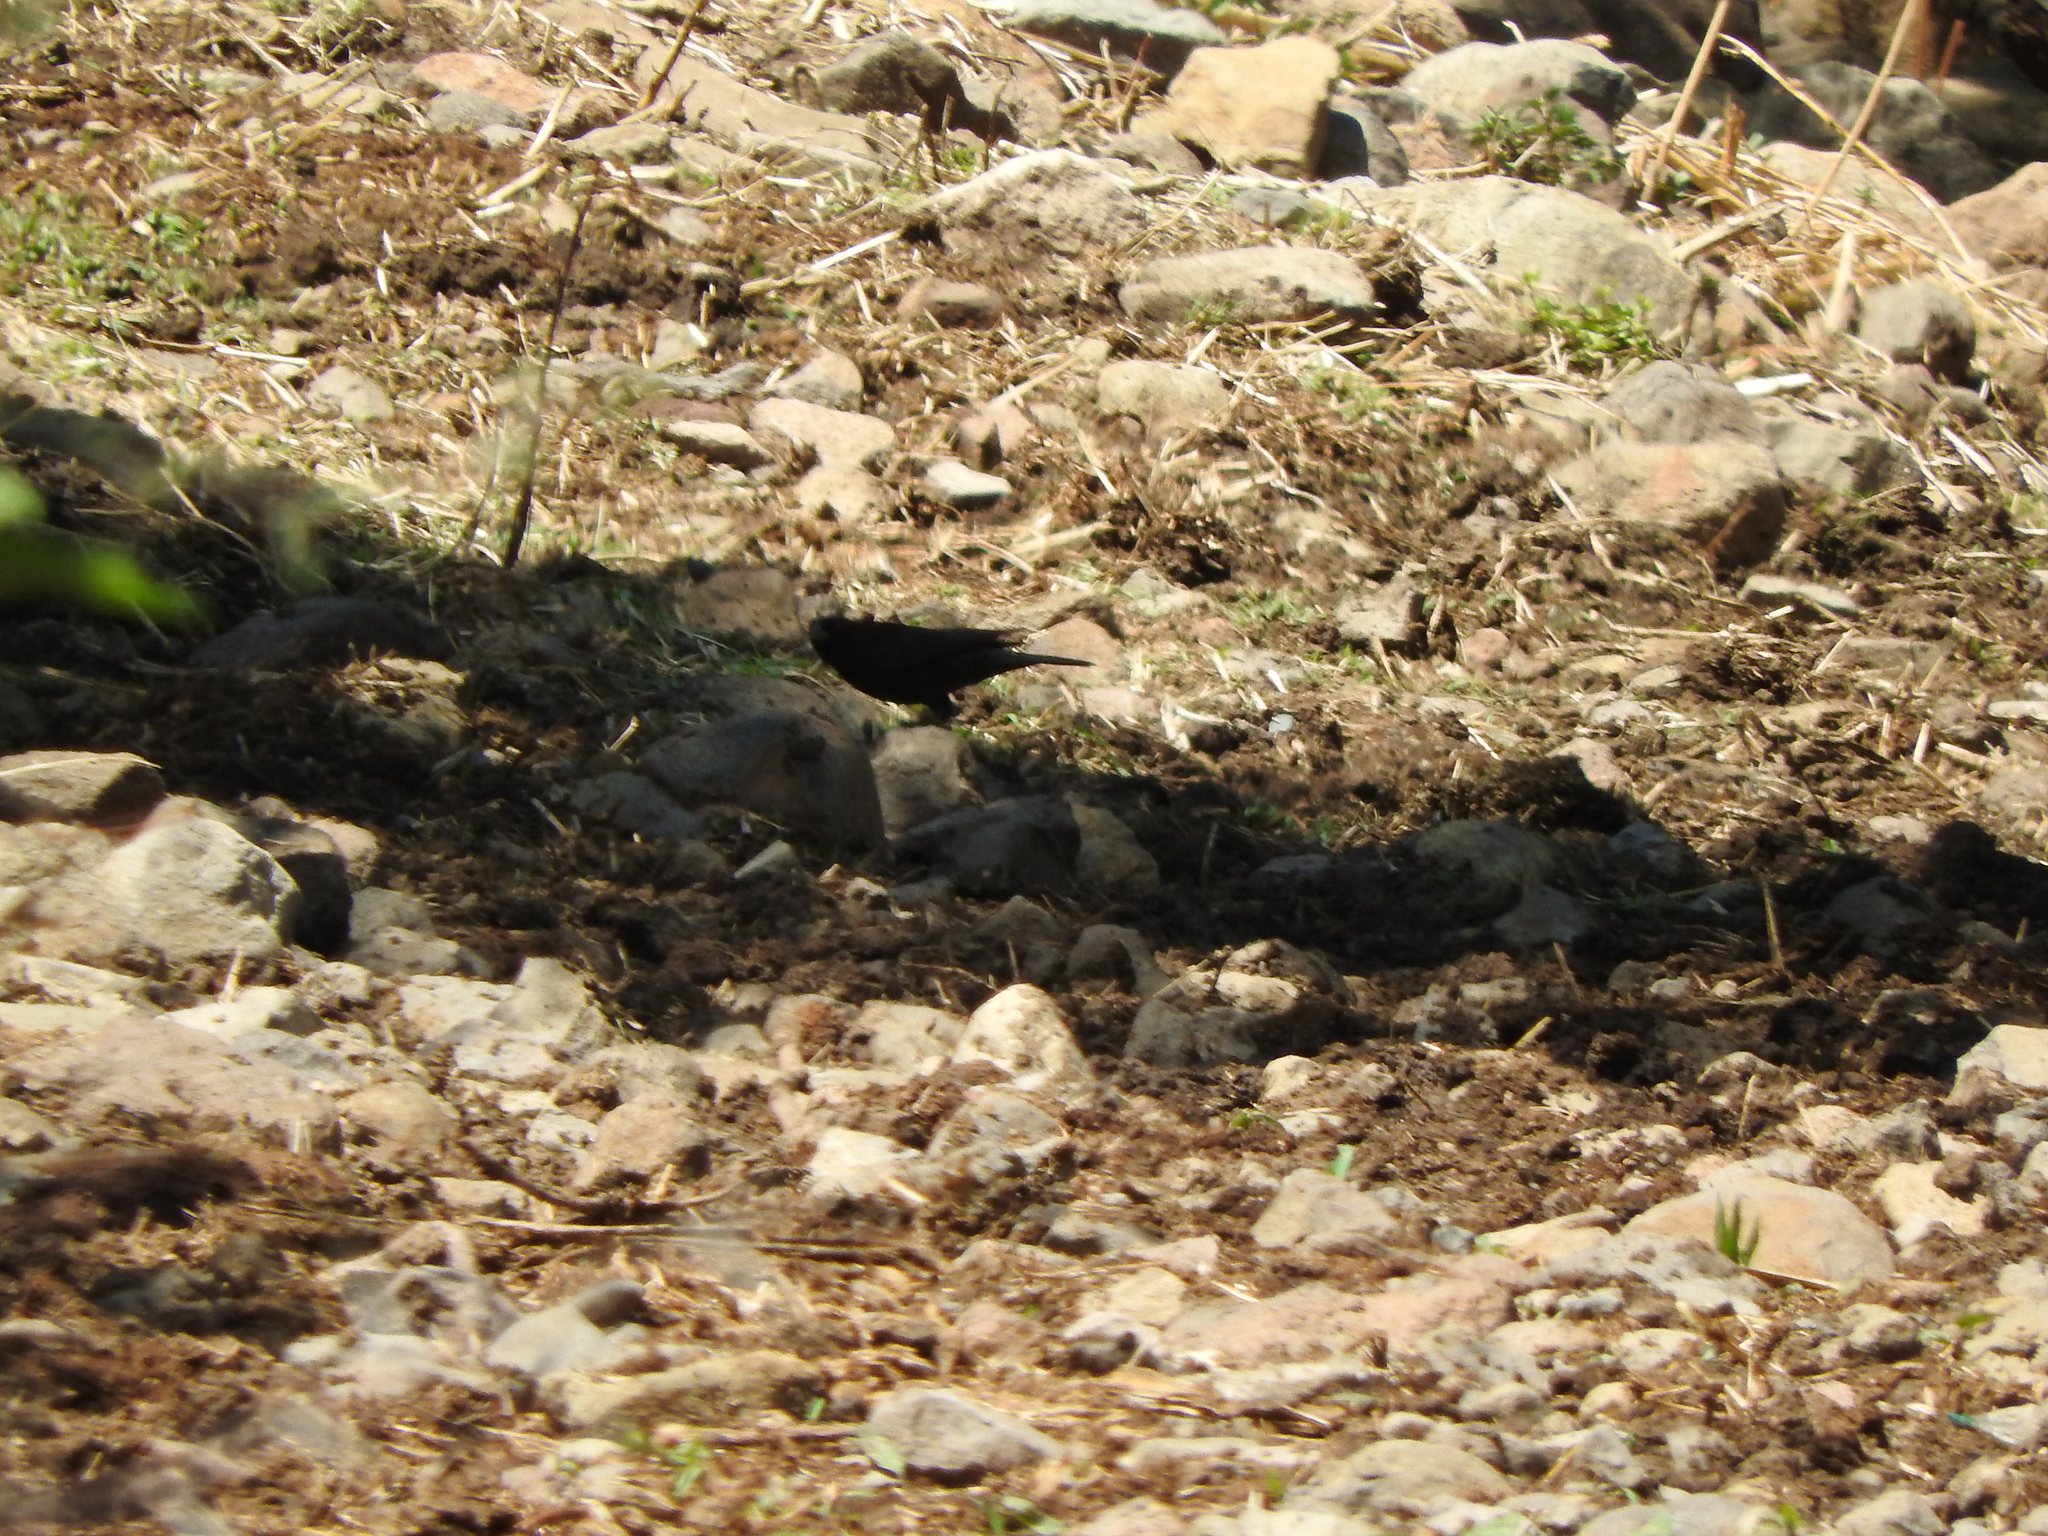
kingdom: Animalia
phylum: Chordata
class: Aves
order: Passeriformes
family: Icteridae
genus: Molothrus
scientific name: Molothrus aeneus
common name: Bronzed cowbird
